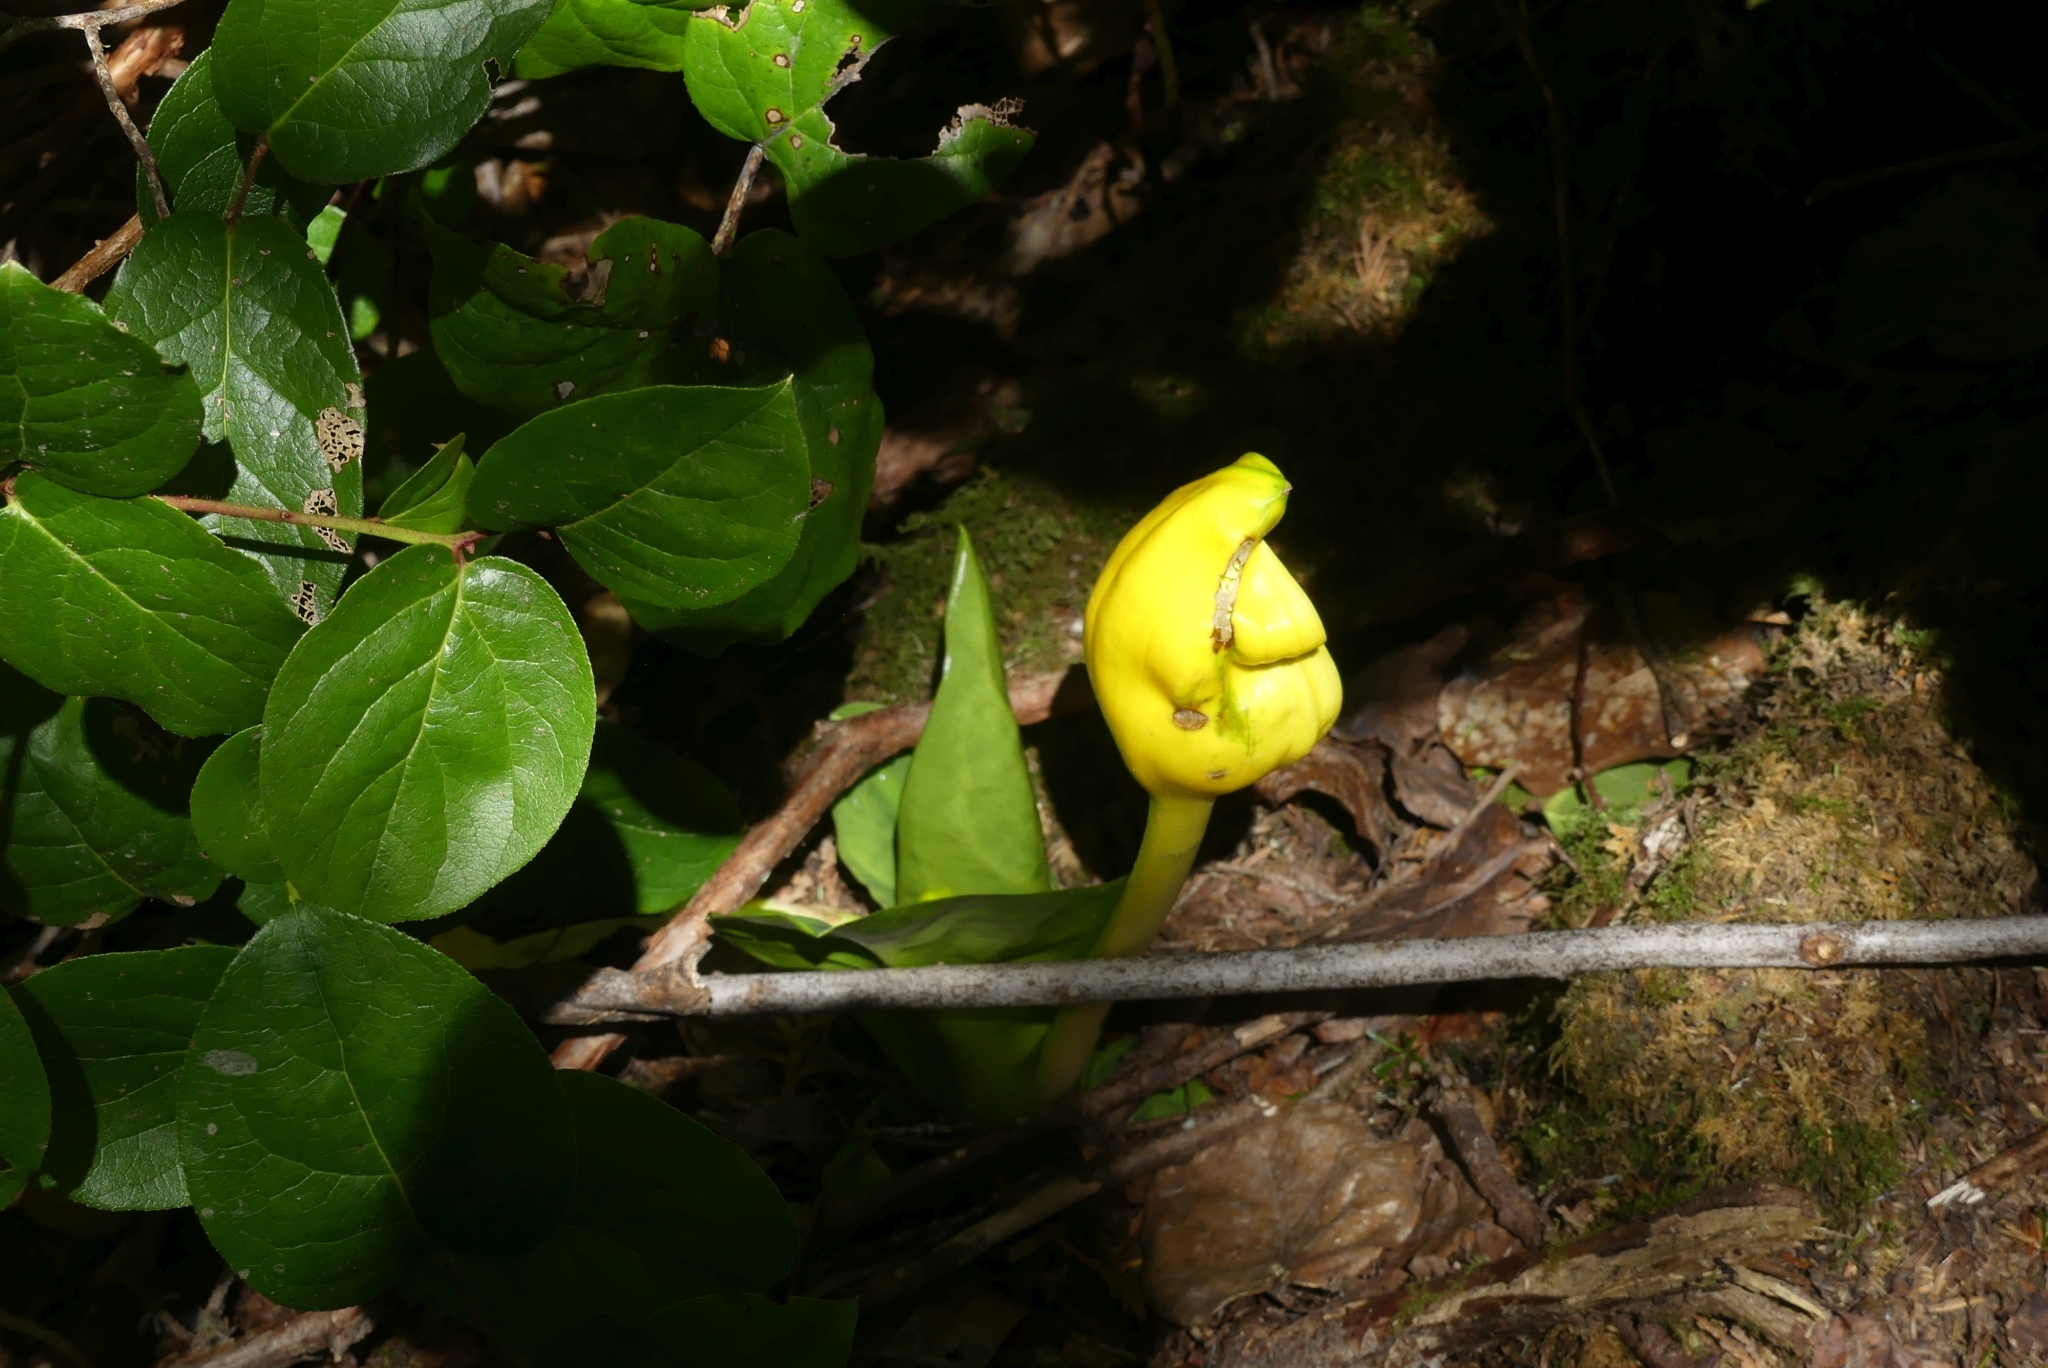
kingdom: Plantae
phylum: Tracheophyta
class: Liliopsida
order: Alismatales
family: Araceae
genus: Lysichiton
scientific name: Lysichiton americanus
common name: American skunk cabbage
